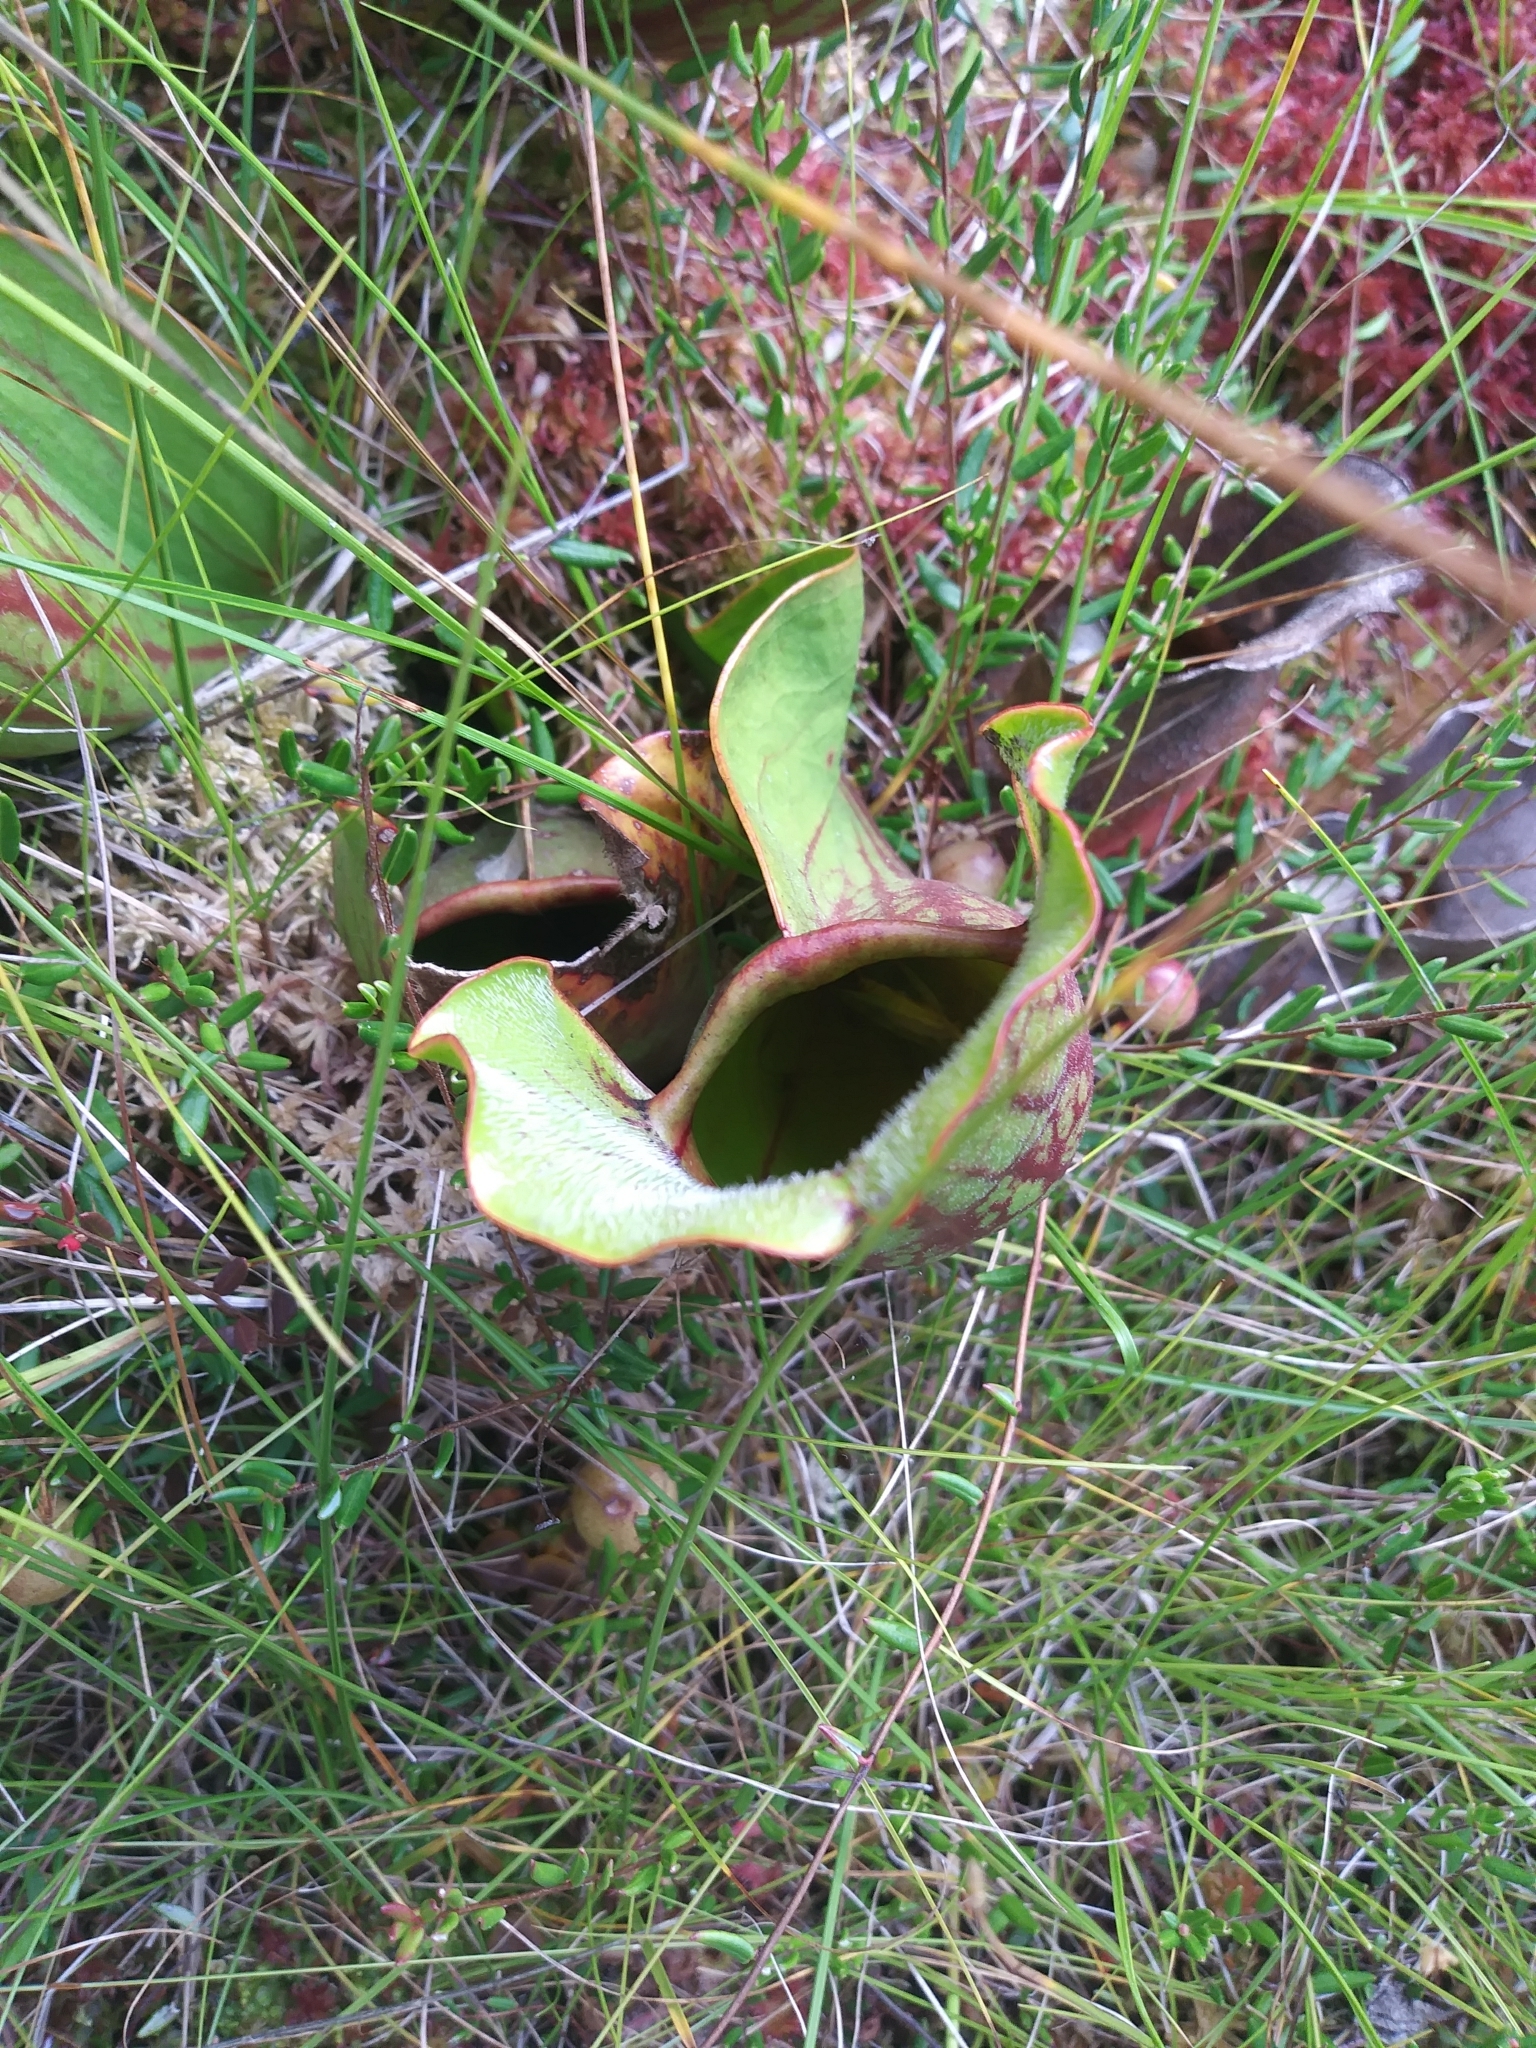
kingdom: Plantae
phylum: Tracheophyta
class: Magnoliopsida
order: Ericales
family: Sarraceniaceae
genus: Sarracenia
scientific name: Sarracenia purpurea
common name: Pitcherplant
